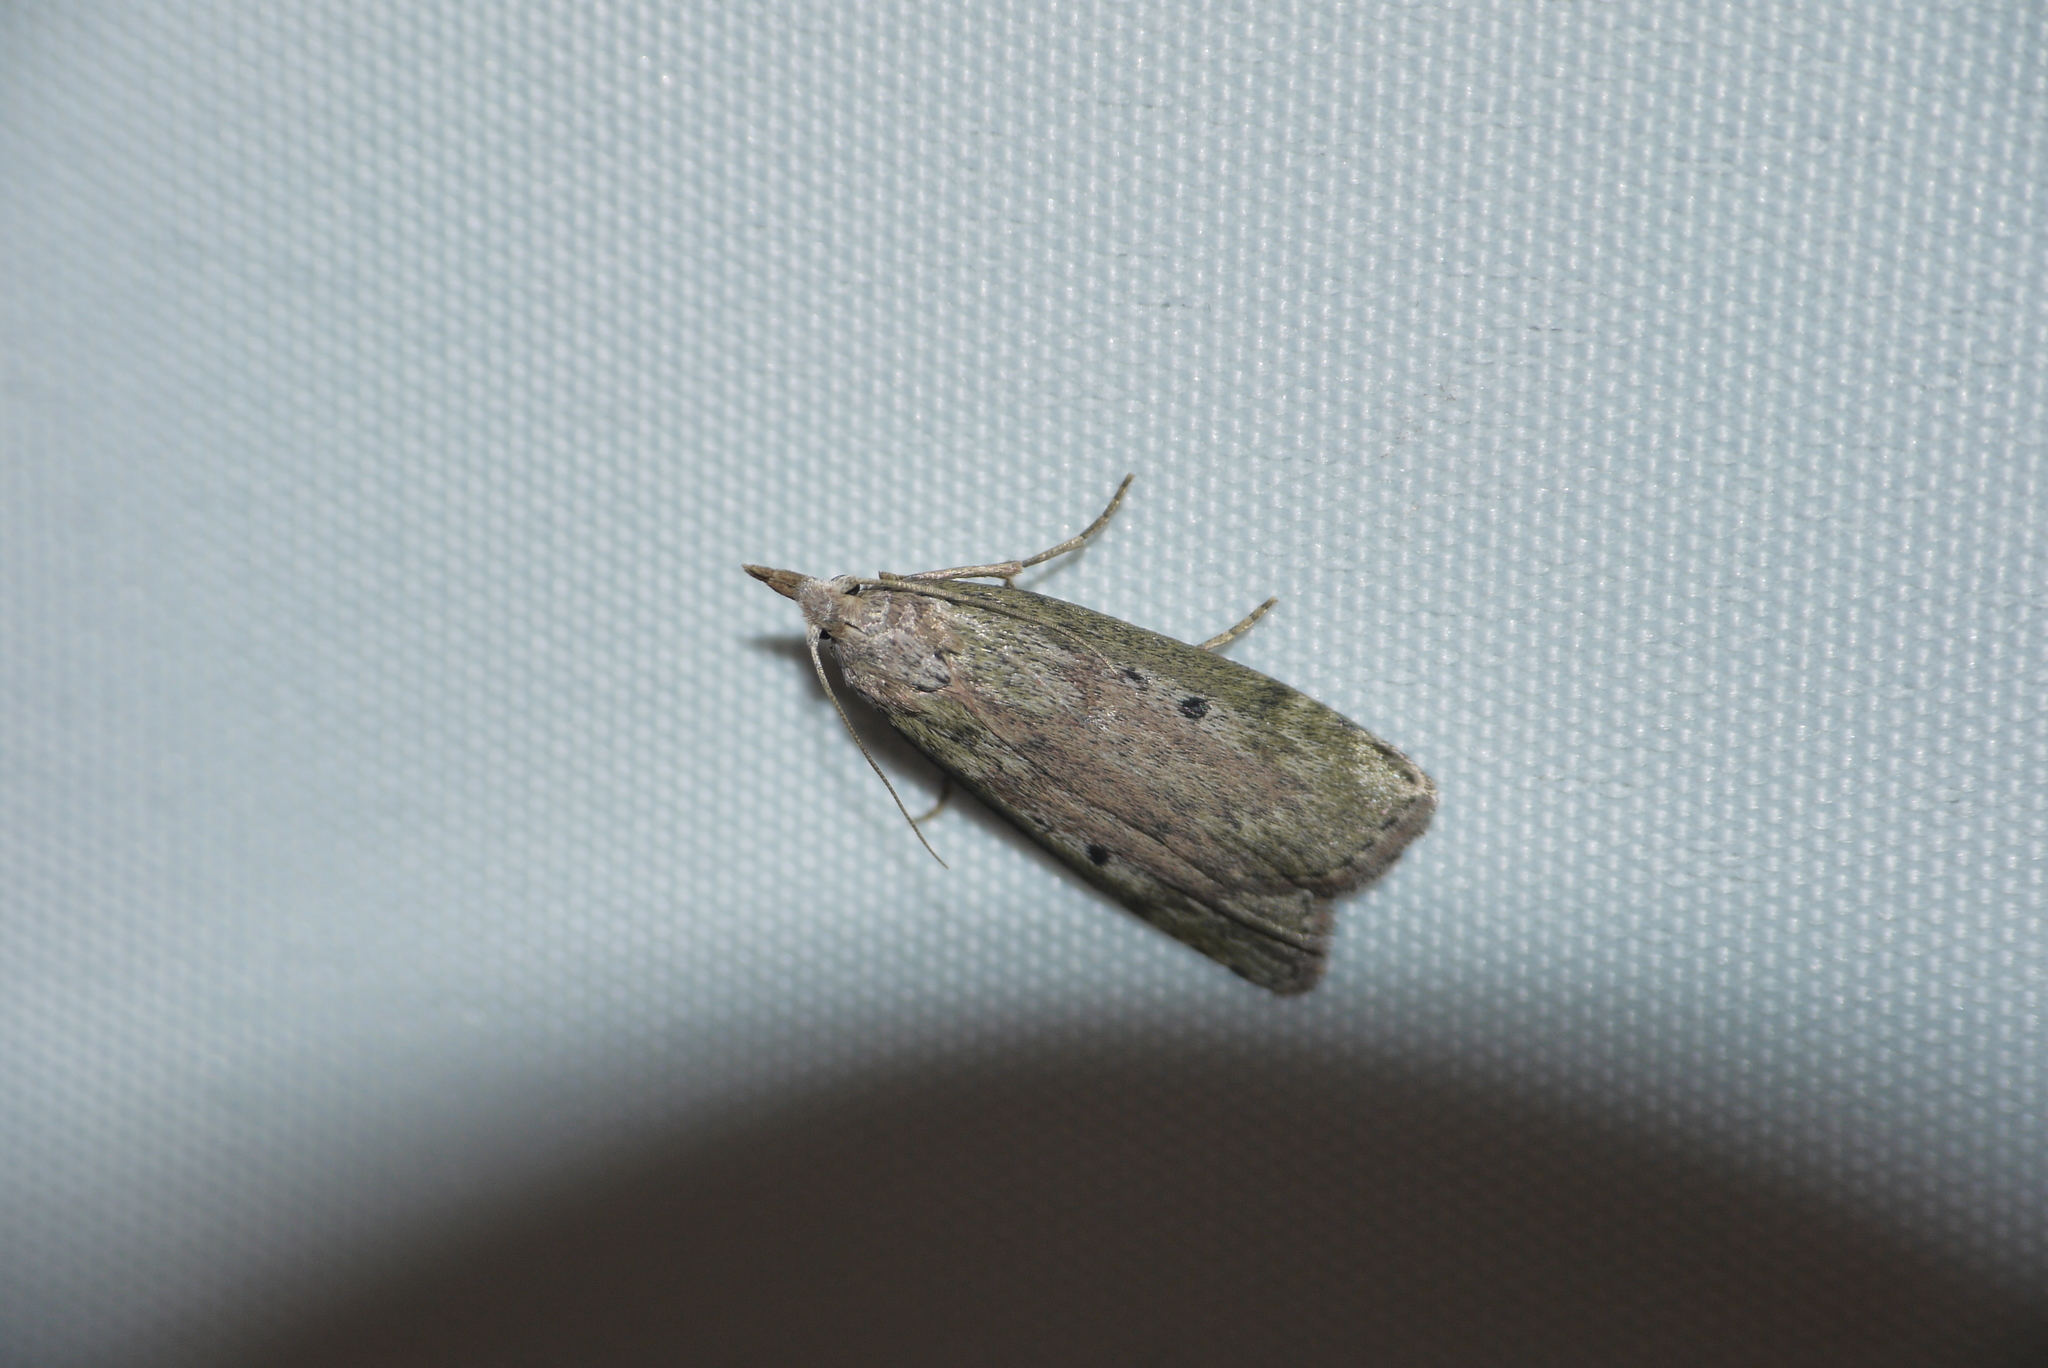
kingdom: Animalia
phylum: Arthropoda
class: Insecta
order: Lepidoptera
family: Pyralidae
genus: Aphomia
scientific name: Aphomia sociella
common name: Bee moth
